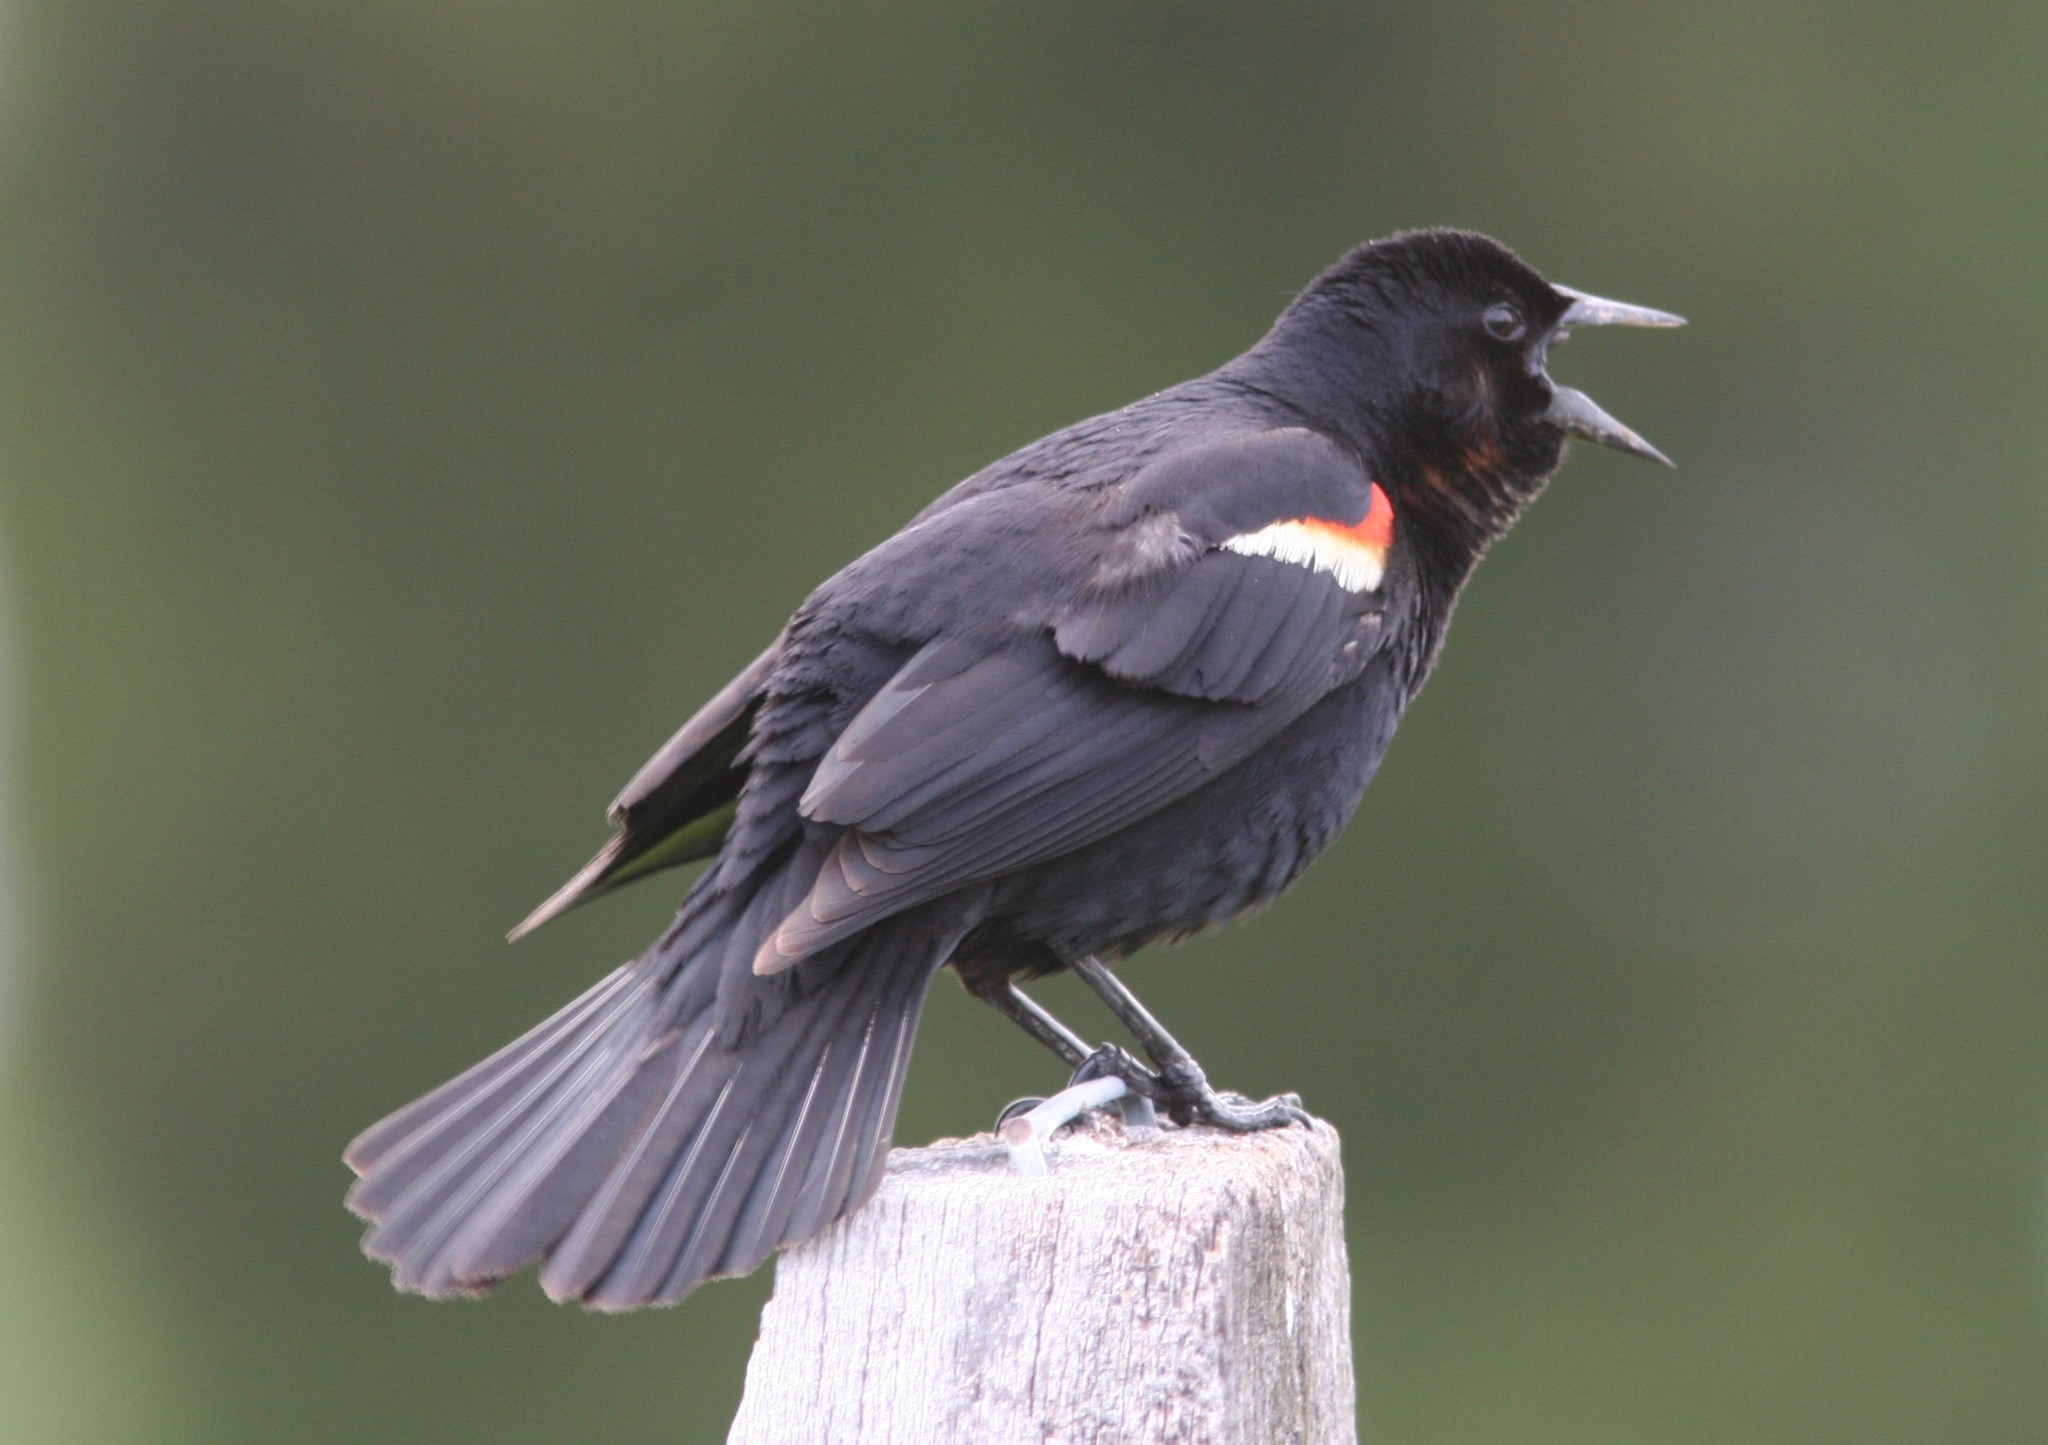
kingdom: Animalia
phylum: Chordata
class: Aves
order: Passeriformes
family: Icteridae
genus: Agelaius
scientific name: Agelaius phoeniceus
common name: Red-winged blackbird
